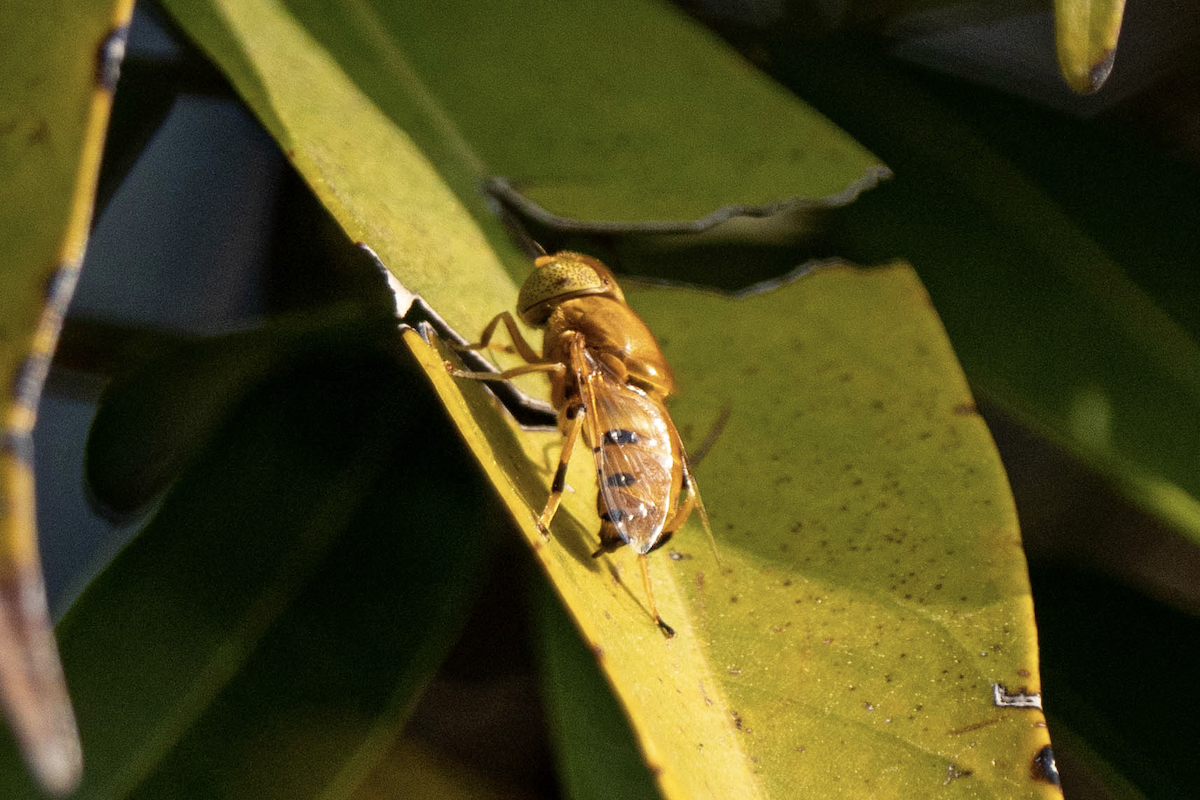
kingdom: Animalia
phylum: Arthropoda
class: Insecta
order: Diptera
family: Syrphidae
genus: Eristalinus
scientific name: Eristalinus flavus
